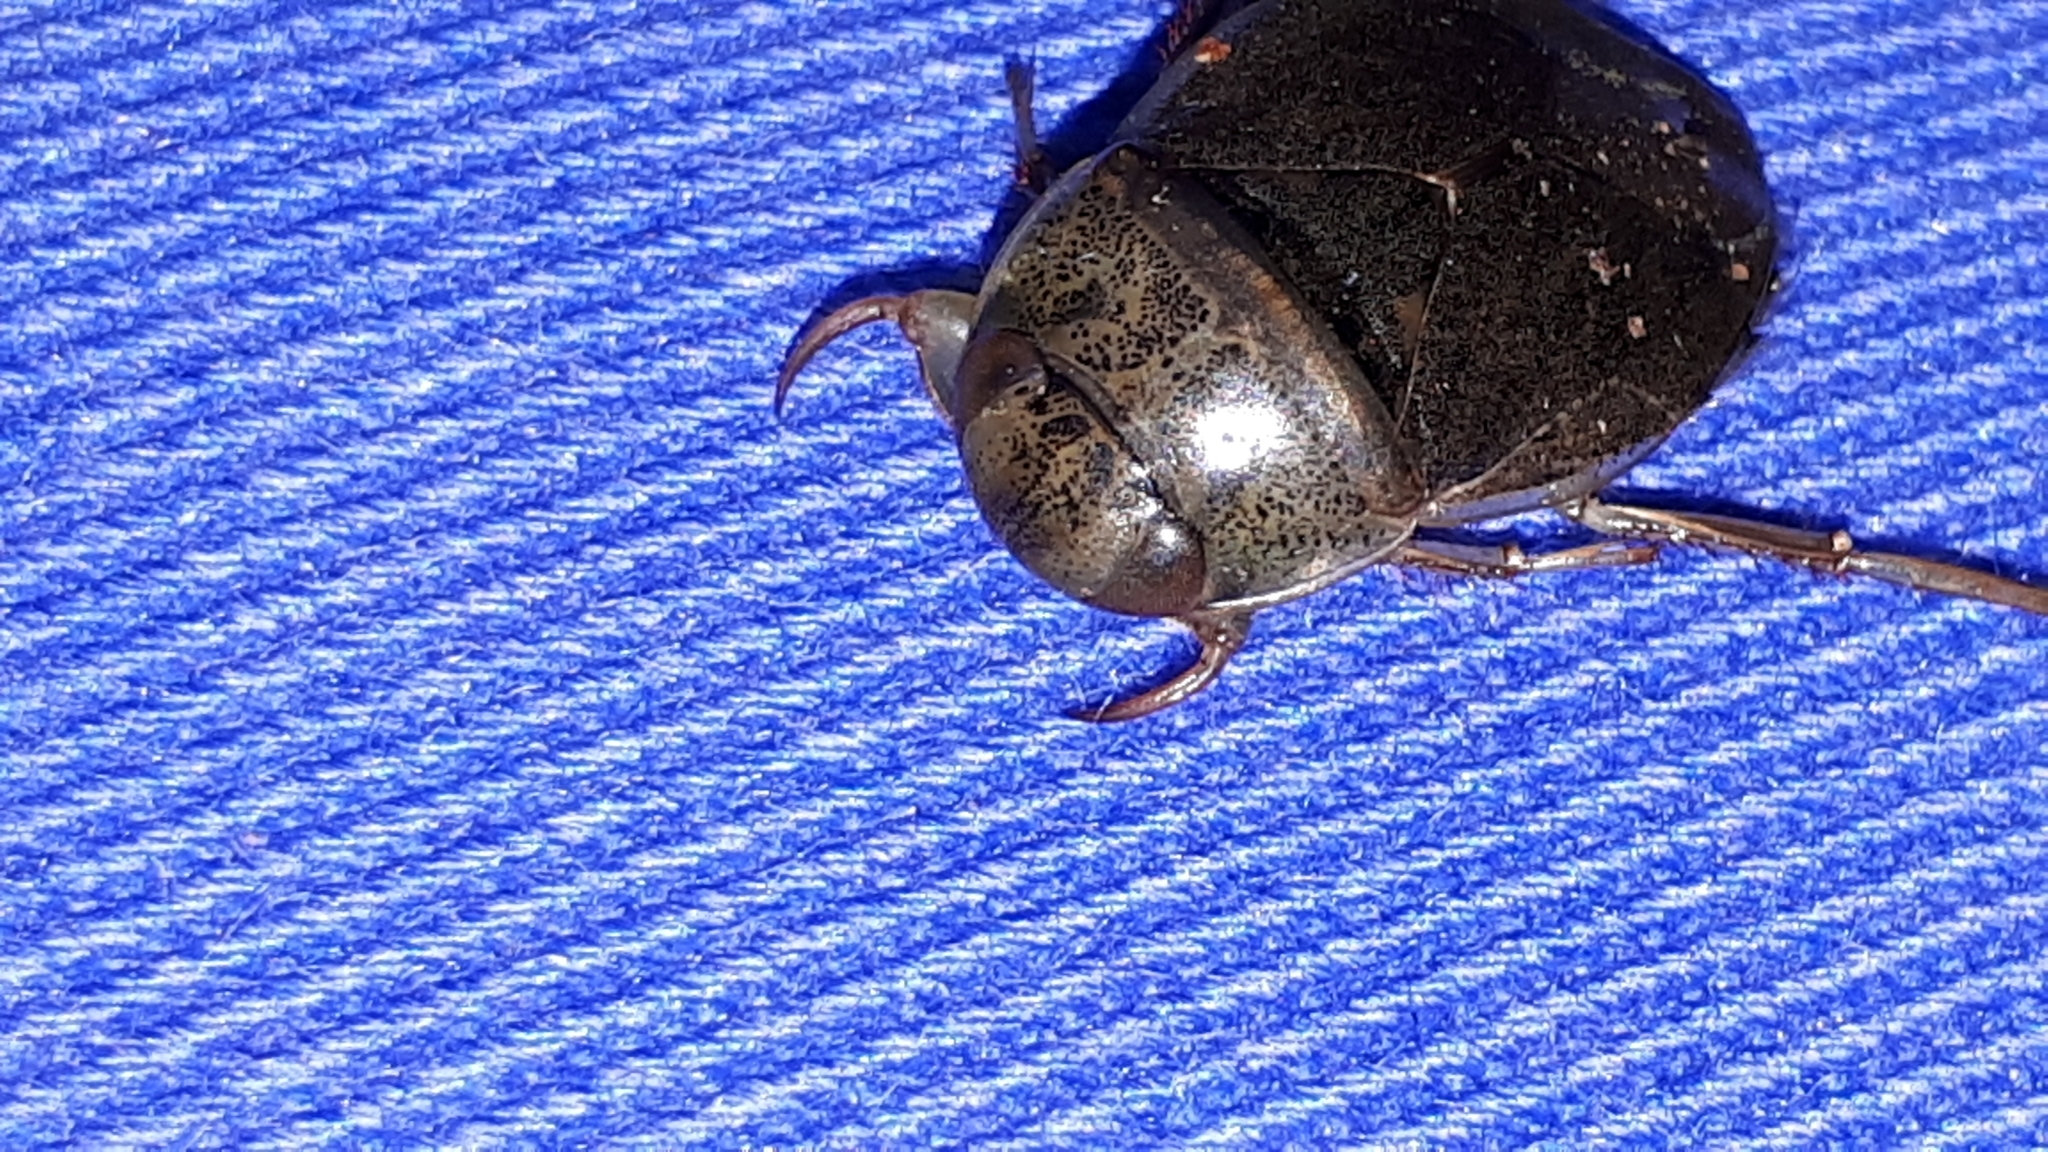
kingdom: Animalia
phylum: Arthropoda
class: Insecta
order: Hemiptera
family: Naucoridae
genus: Ilyocoris
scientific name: Ilyocoris cimicoides
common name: Saucer bugs
